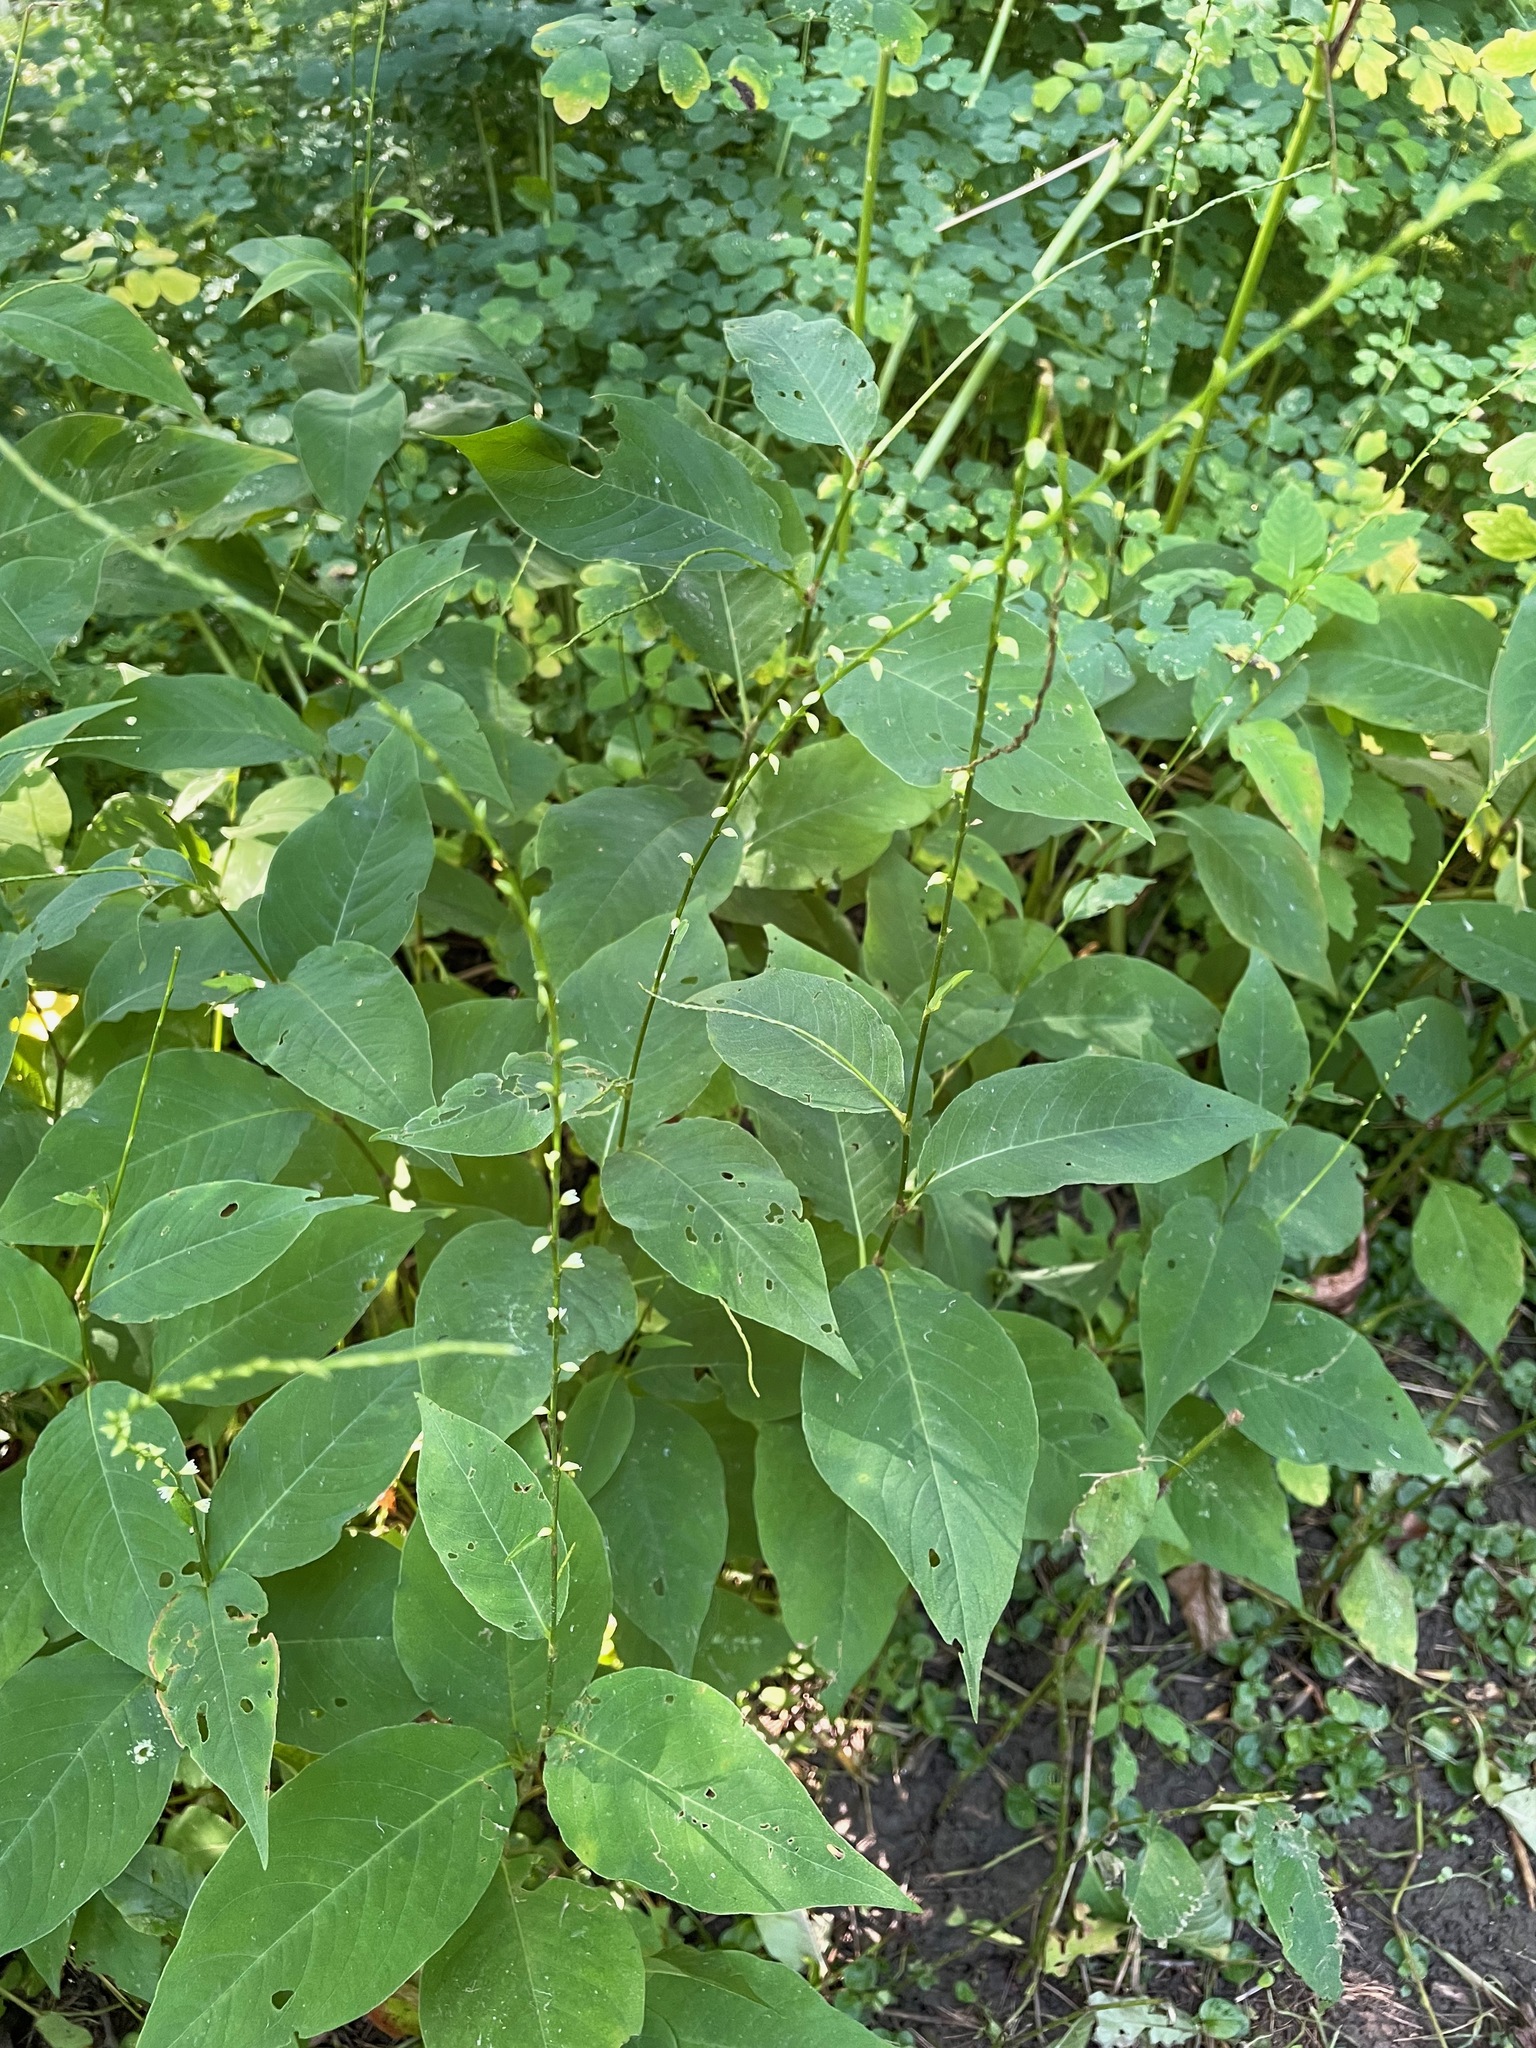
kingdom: Plantae
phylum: Tracheophyta
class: Magnoliopsida
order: Caryophyllales
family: Polygonaceae
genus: Persicaria
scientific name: Persicaria virginiana
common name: Jumpseed
